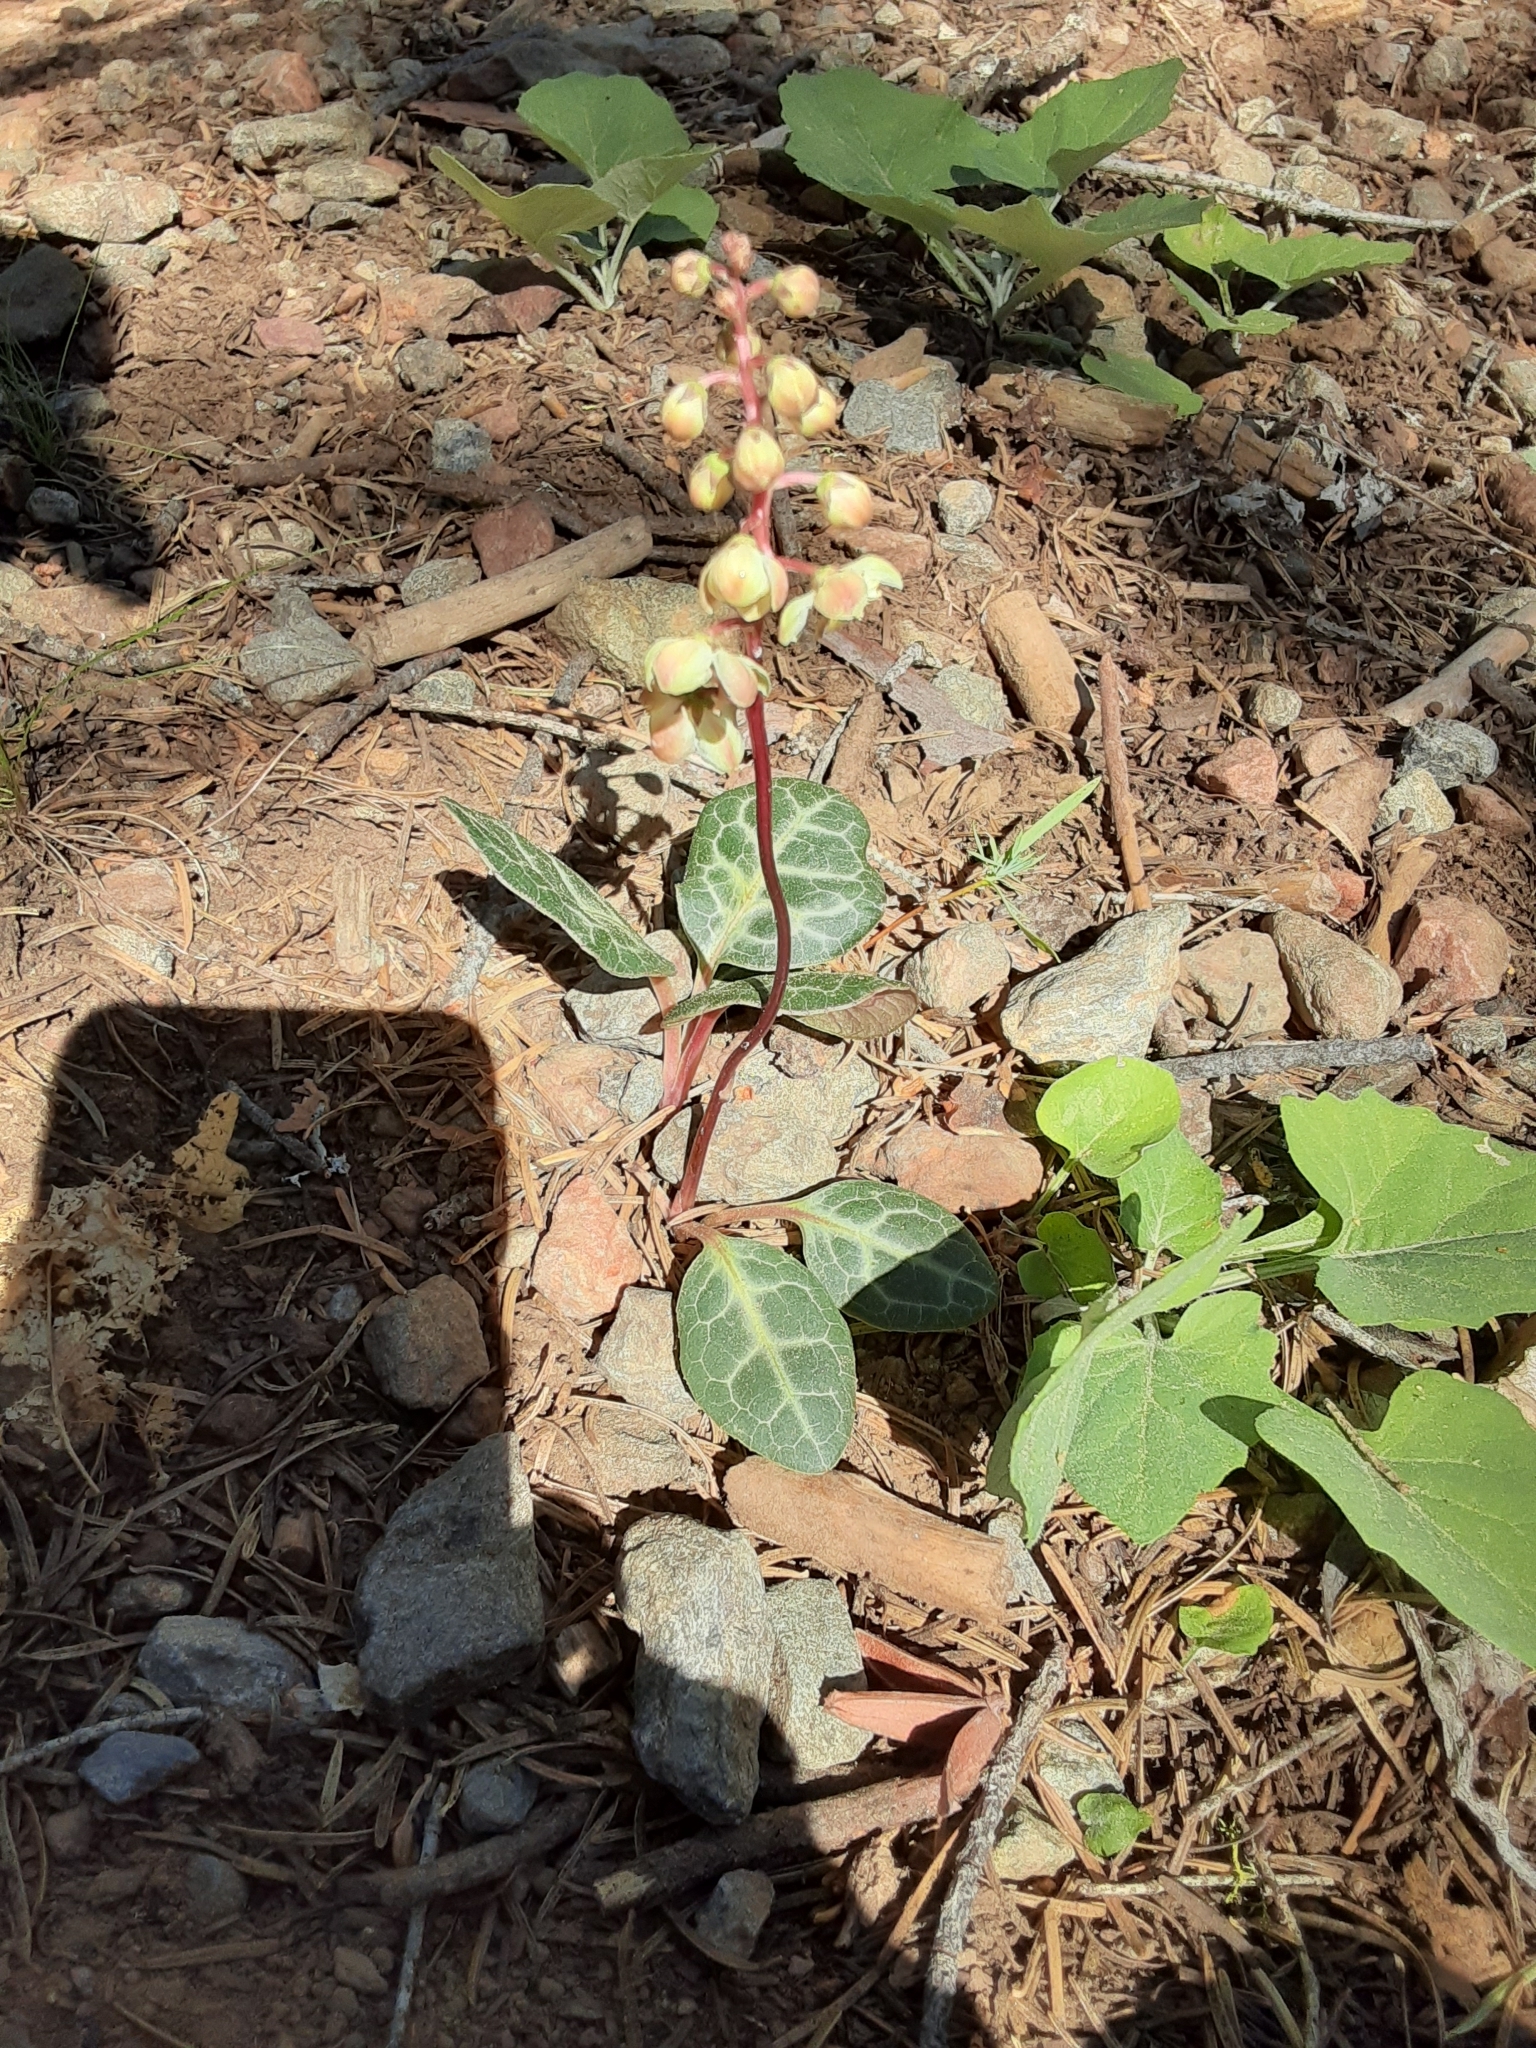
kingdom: Plantae
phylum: Tracheophyta
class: Magnoliopsida
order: Ericales
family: Ericaceae
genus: Pyrola
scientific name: Pyrola picta
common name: White-vein wintergreen
